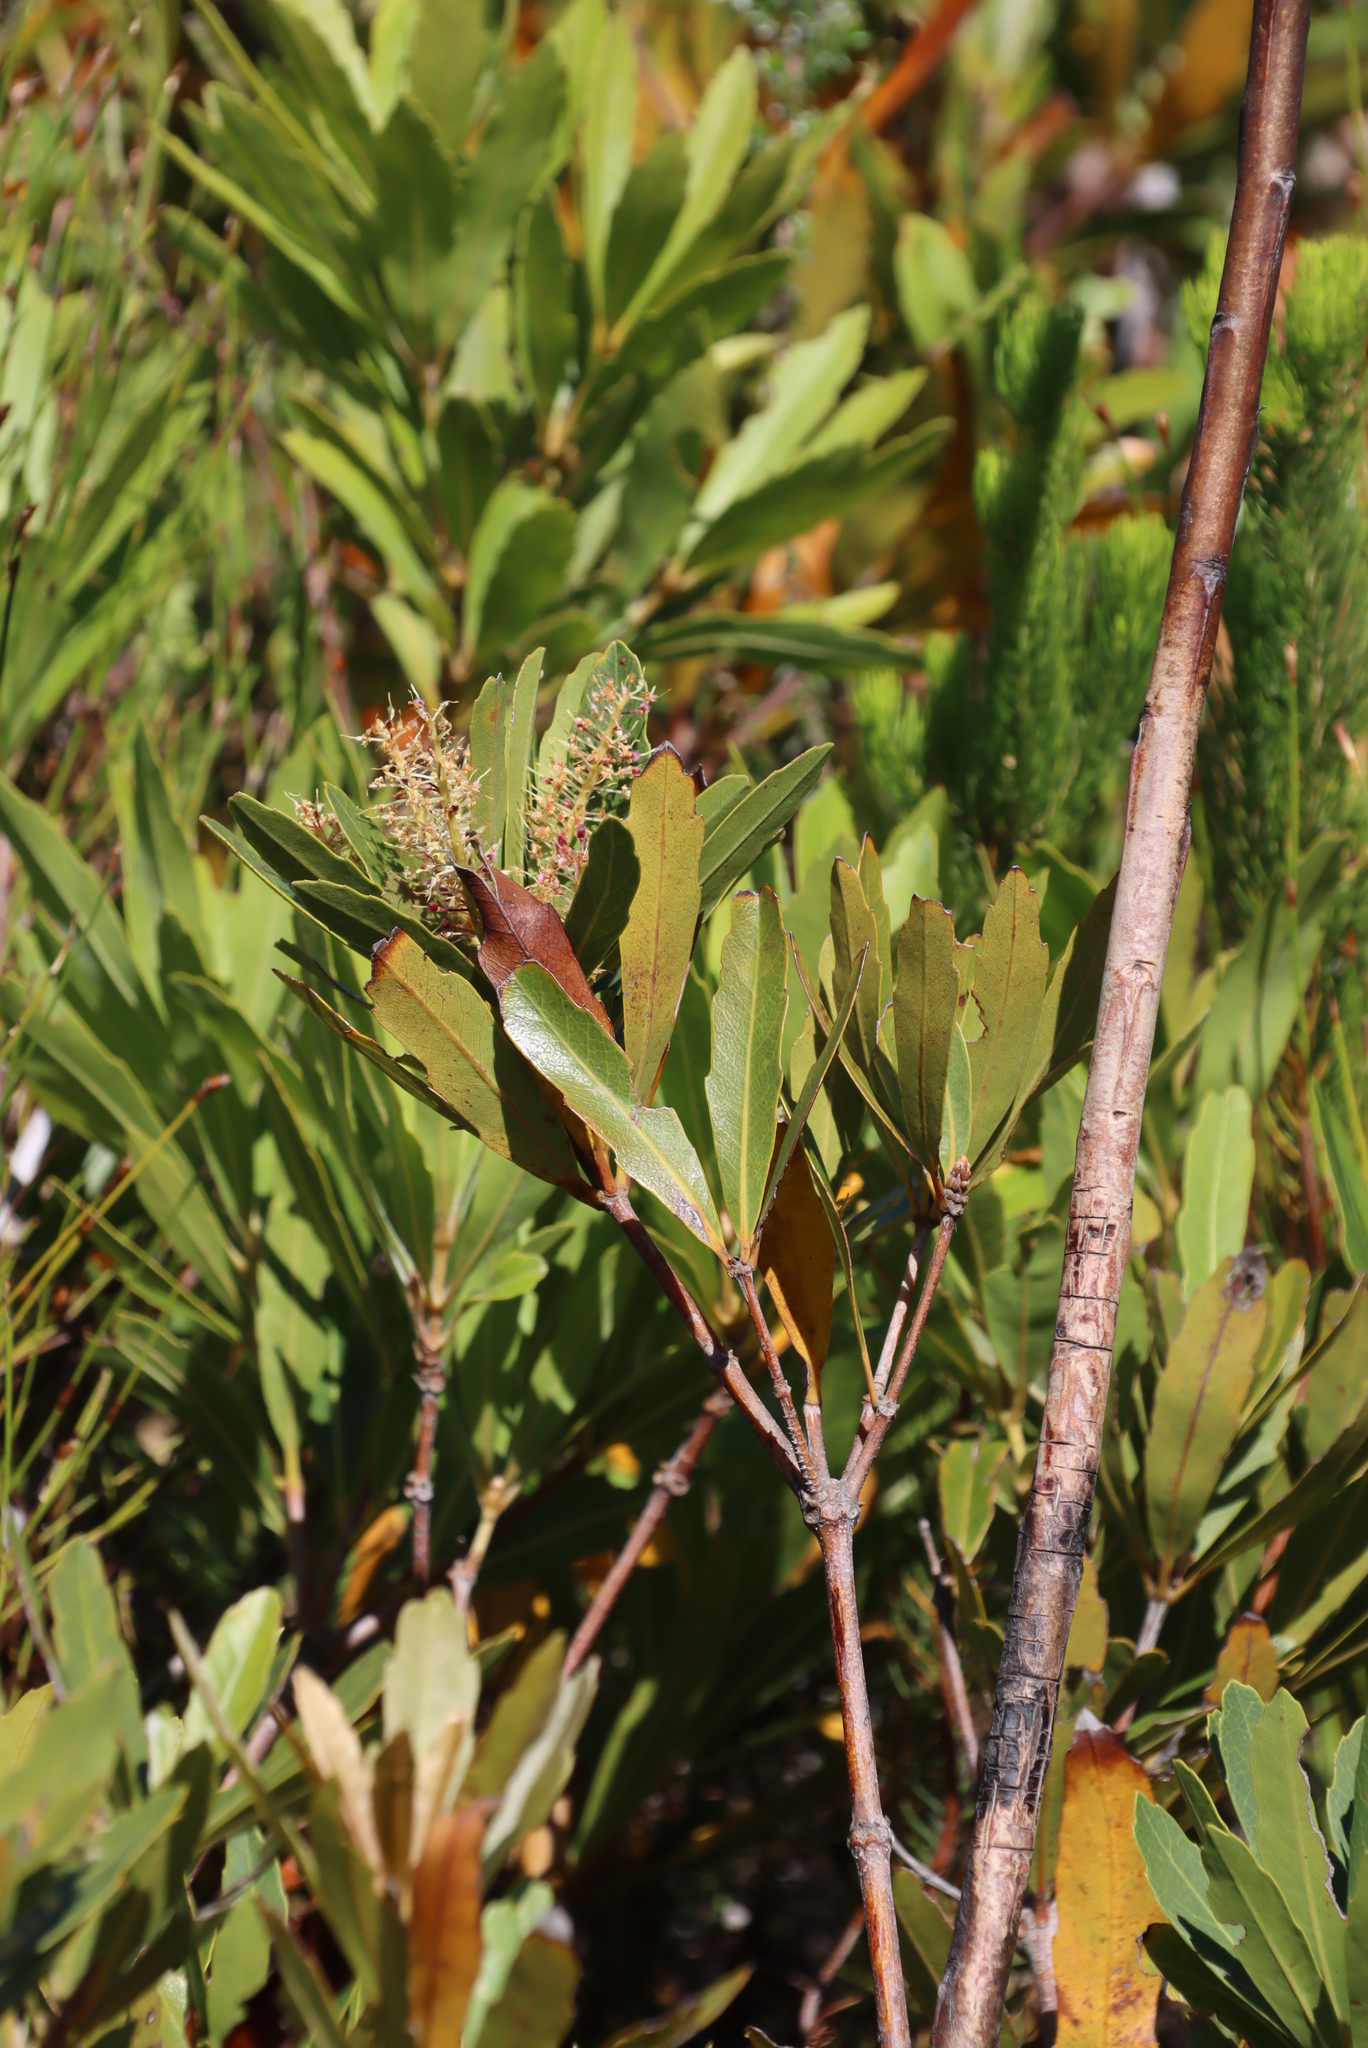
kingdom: Plantae
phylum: Tracheophyta
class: Magnoliopsida
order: Proteales
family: Proteaceae
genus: Brabejum
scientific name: Brabejum stellatifolium
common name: Wild almond
